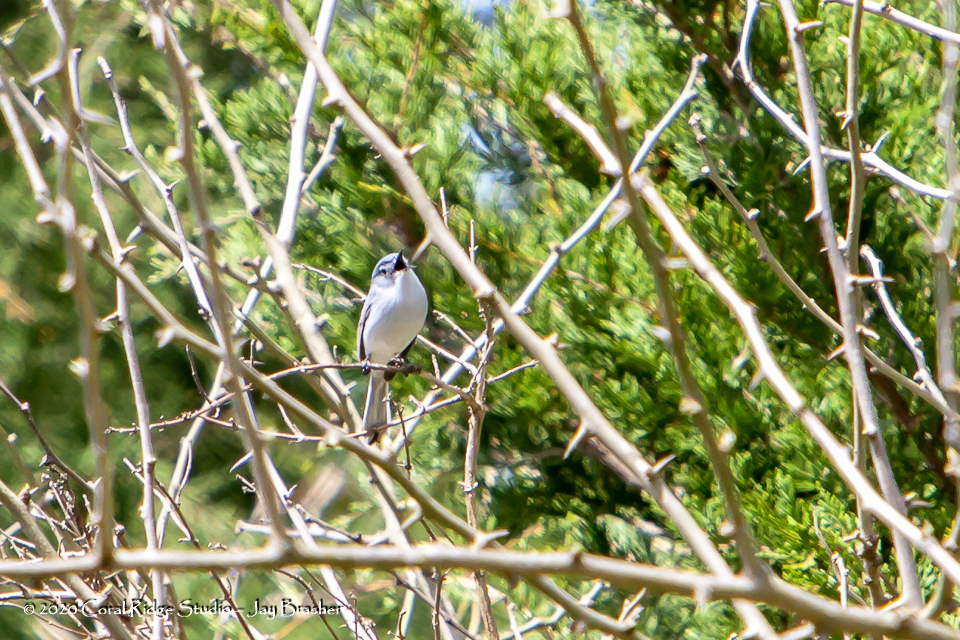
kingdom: Animalia
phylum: Chordata
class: Aves
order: Passeriformes
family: Polioptilidae
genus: Polioptila
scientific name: Polioptila caerulea
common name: Blue-gray gnatcatcher
